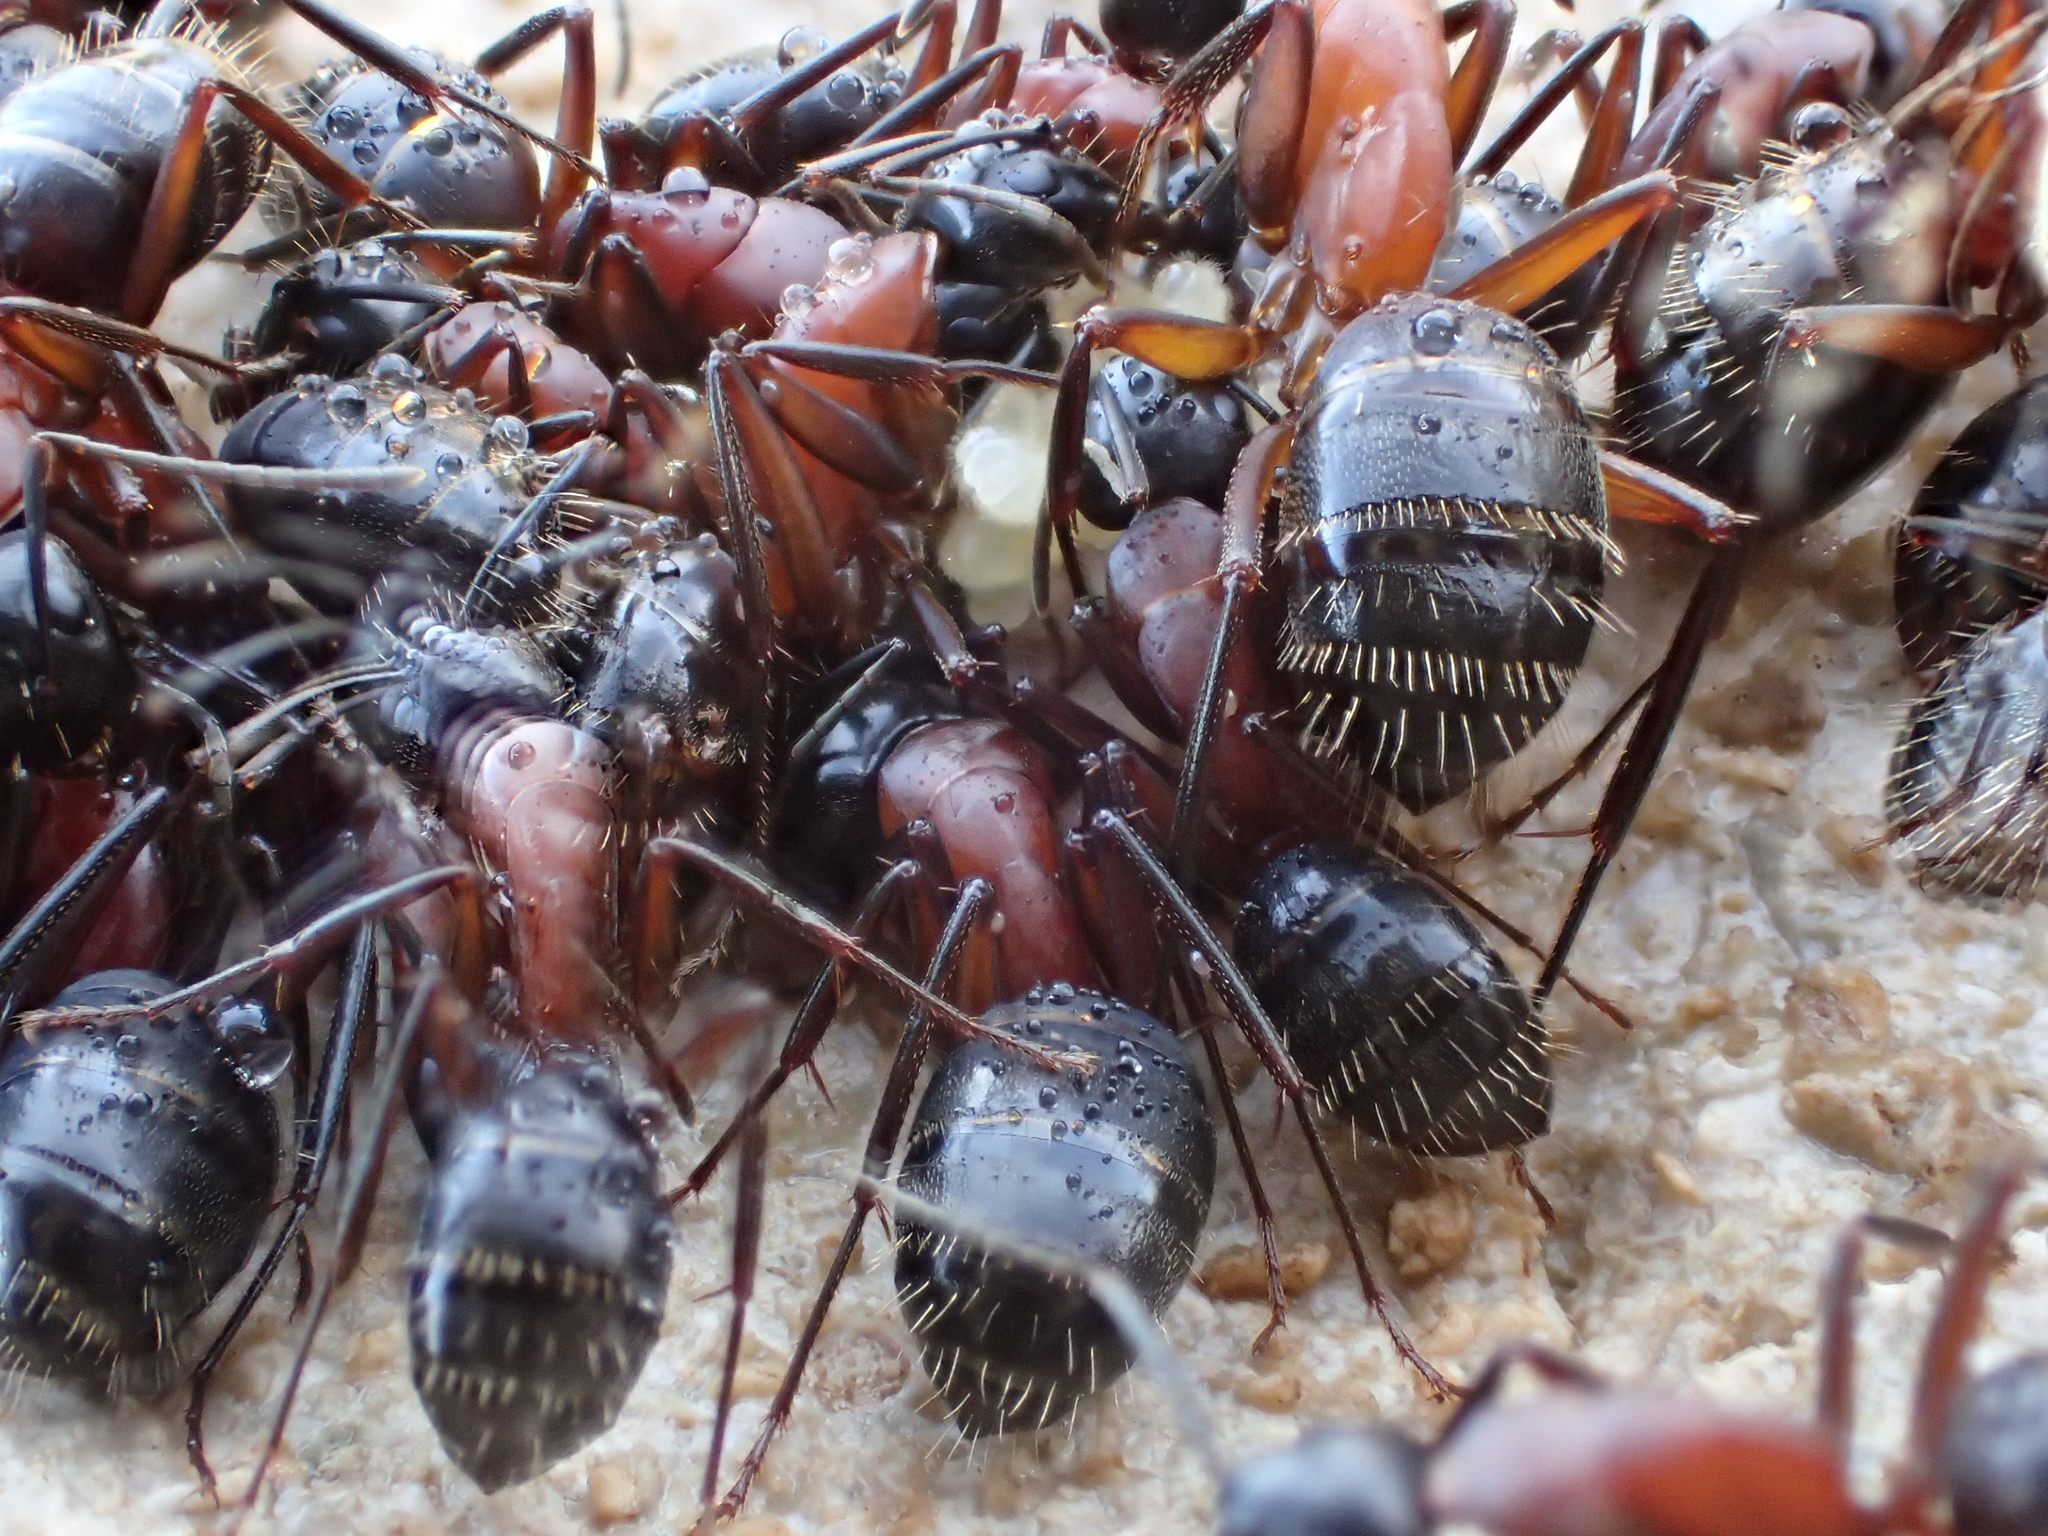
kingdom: Animalia
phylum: Arthropoda
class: Insecta
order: Hymenoptera
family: Formicidae
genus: Camponotus
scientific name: Camponotus ligniperdus
